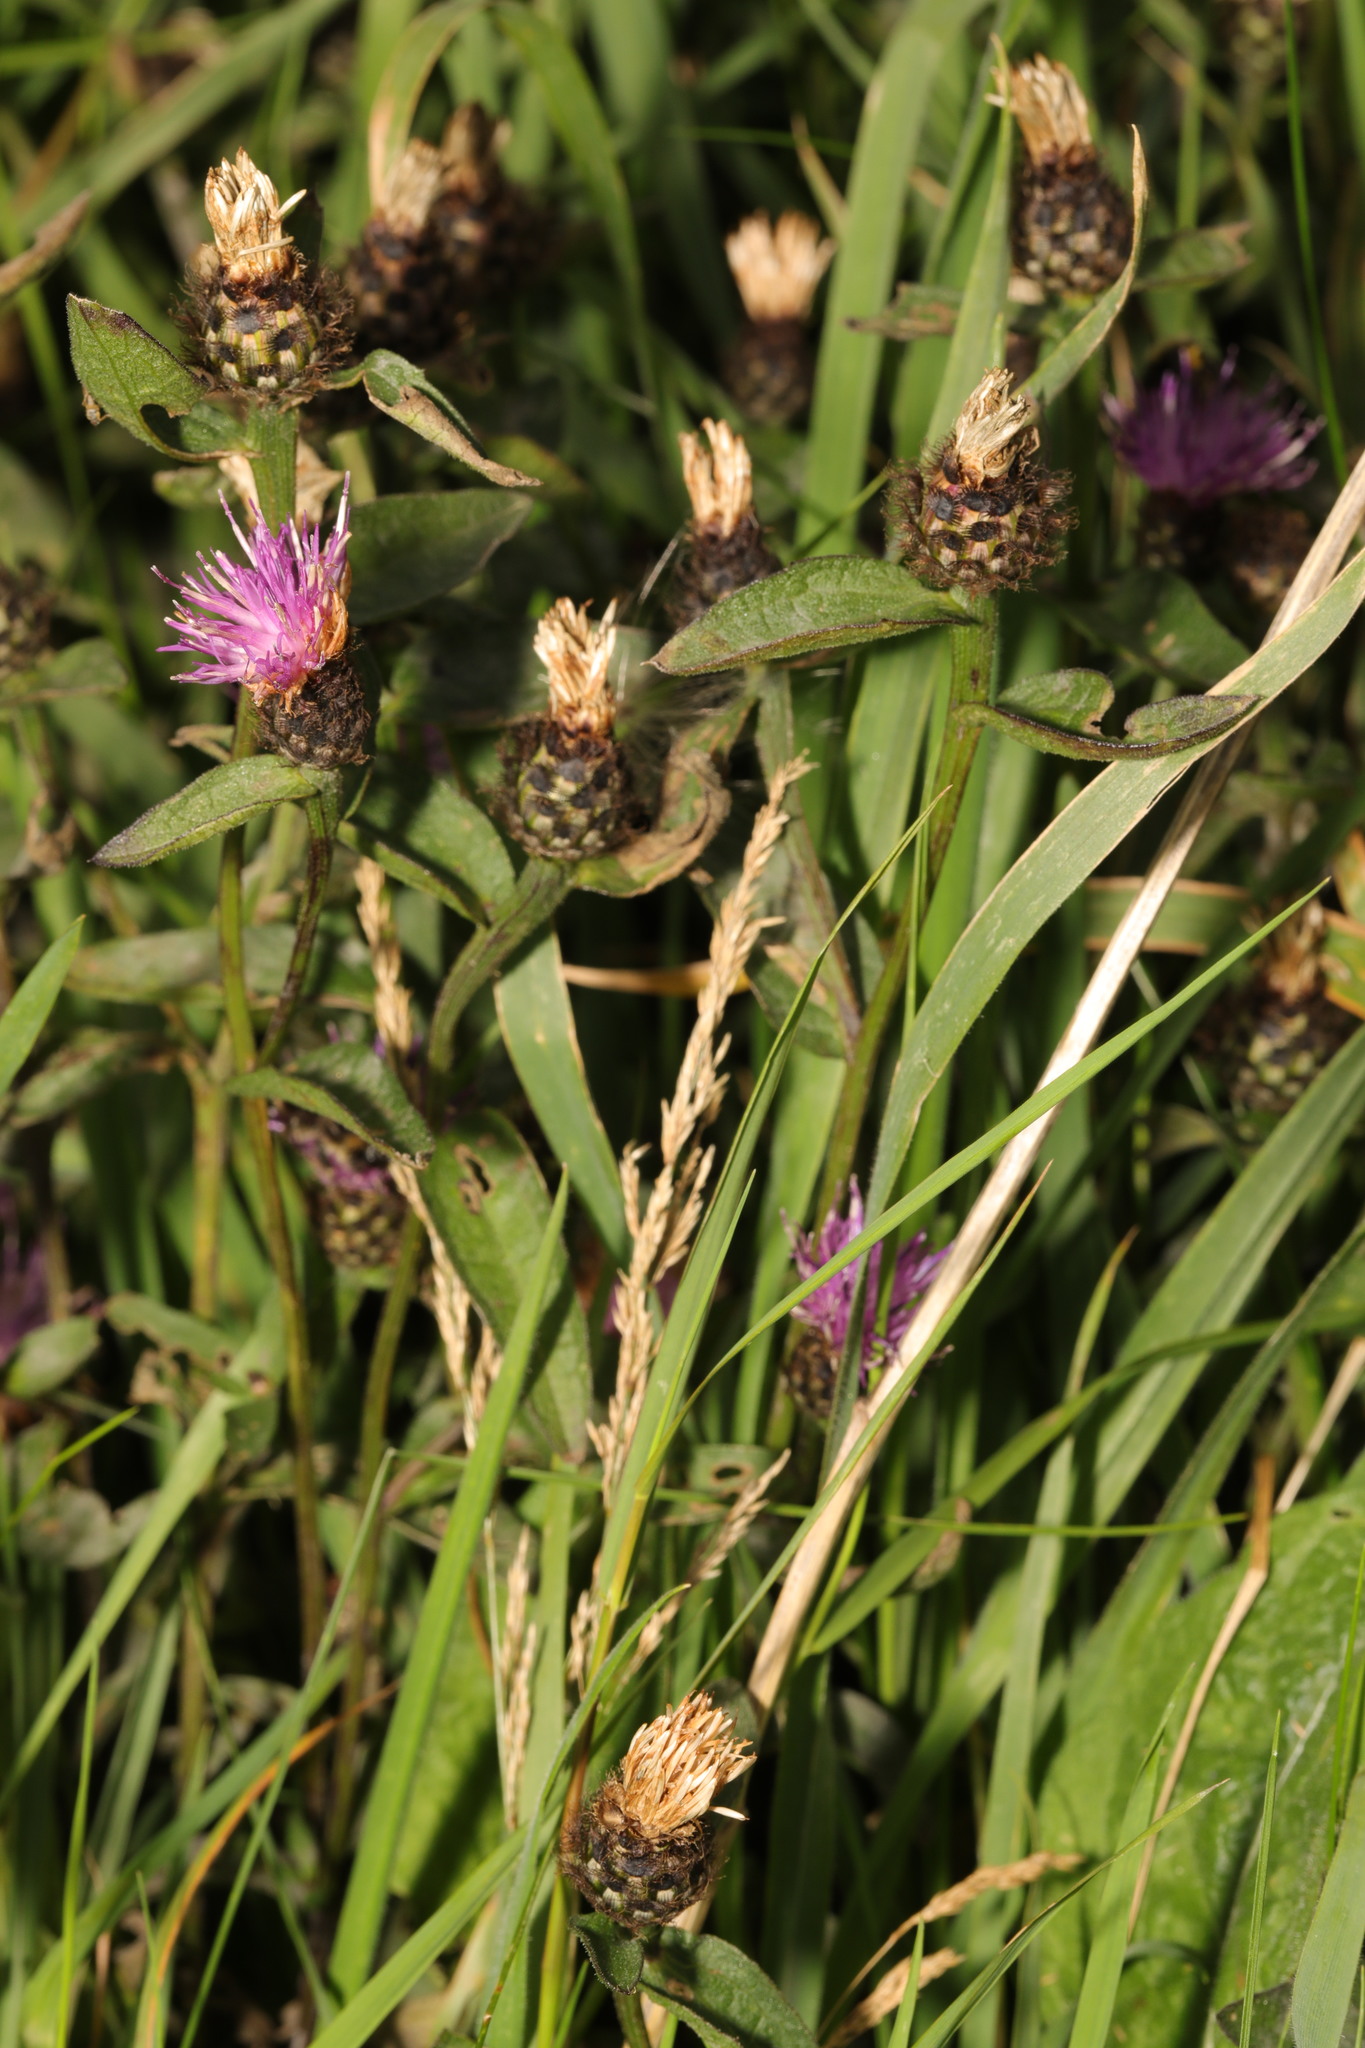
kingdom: Plantae
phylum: Tracheophyta
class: Magnoliopsida
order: Asterales
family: Asteraceae
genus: Centaurea
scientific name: Centaurea nigra
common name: Lesser knapweed
